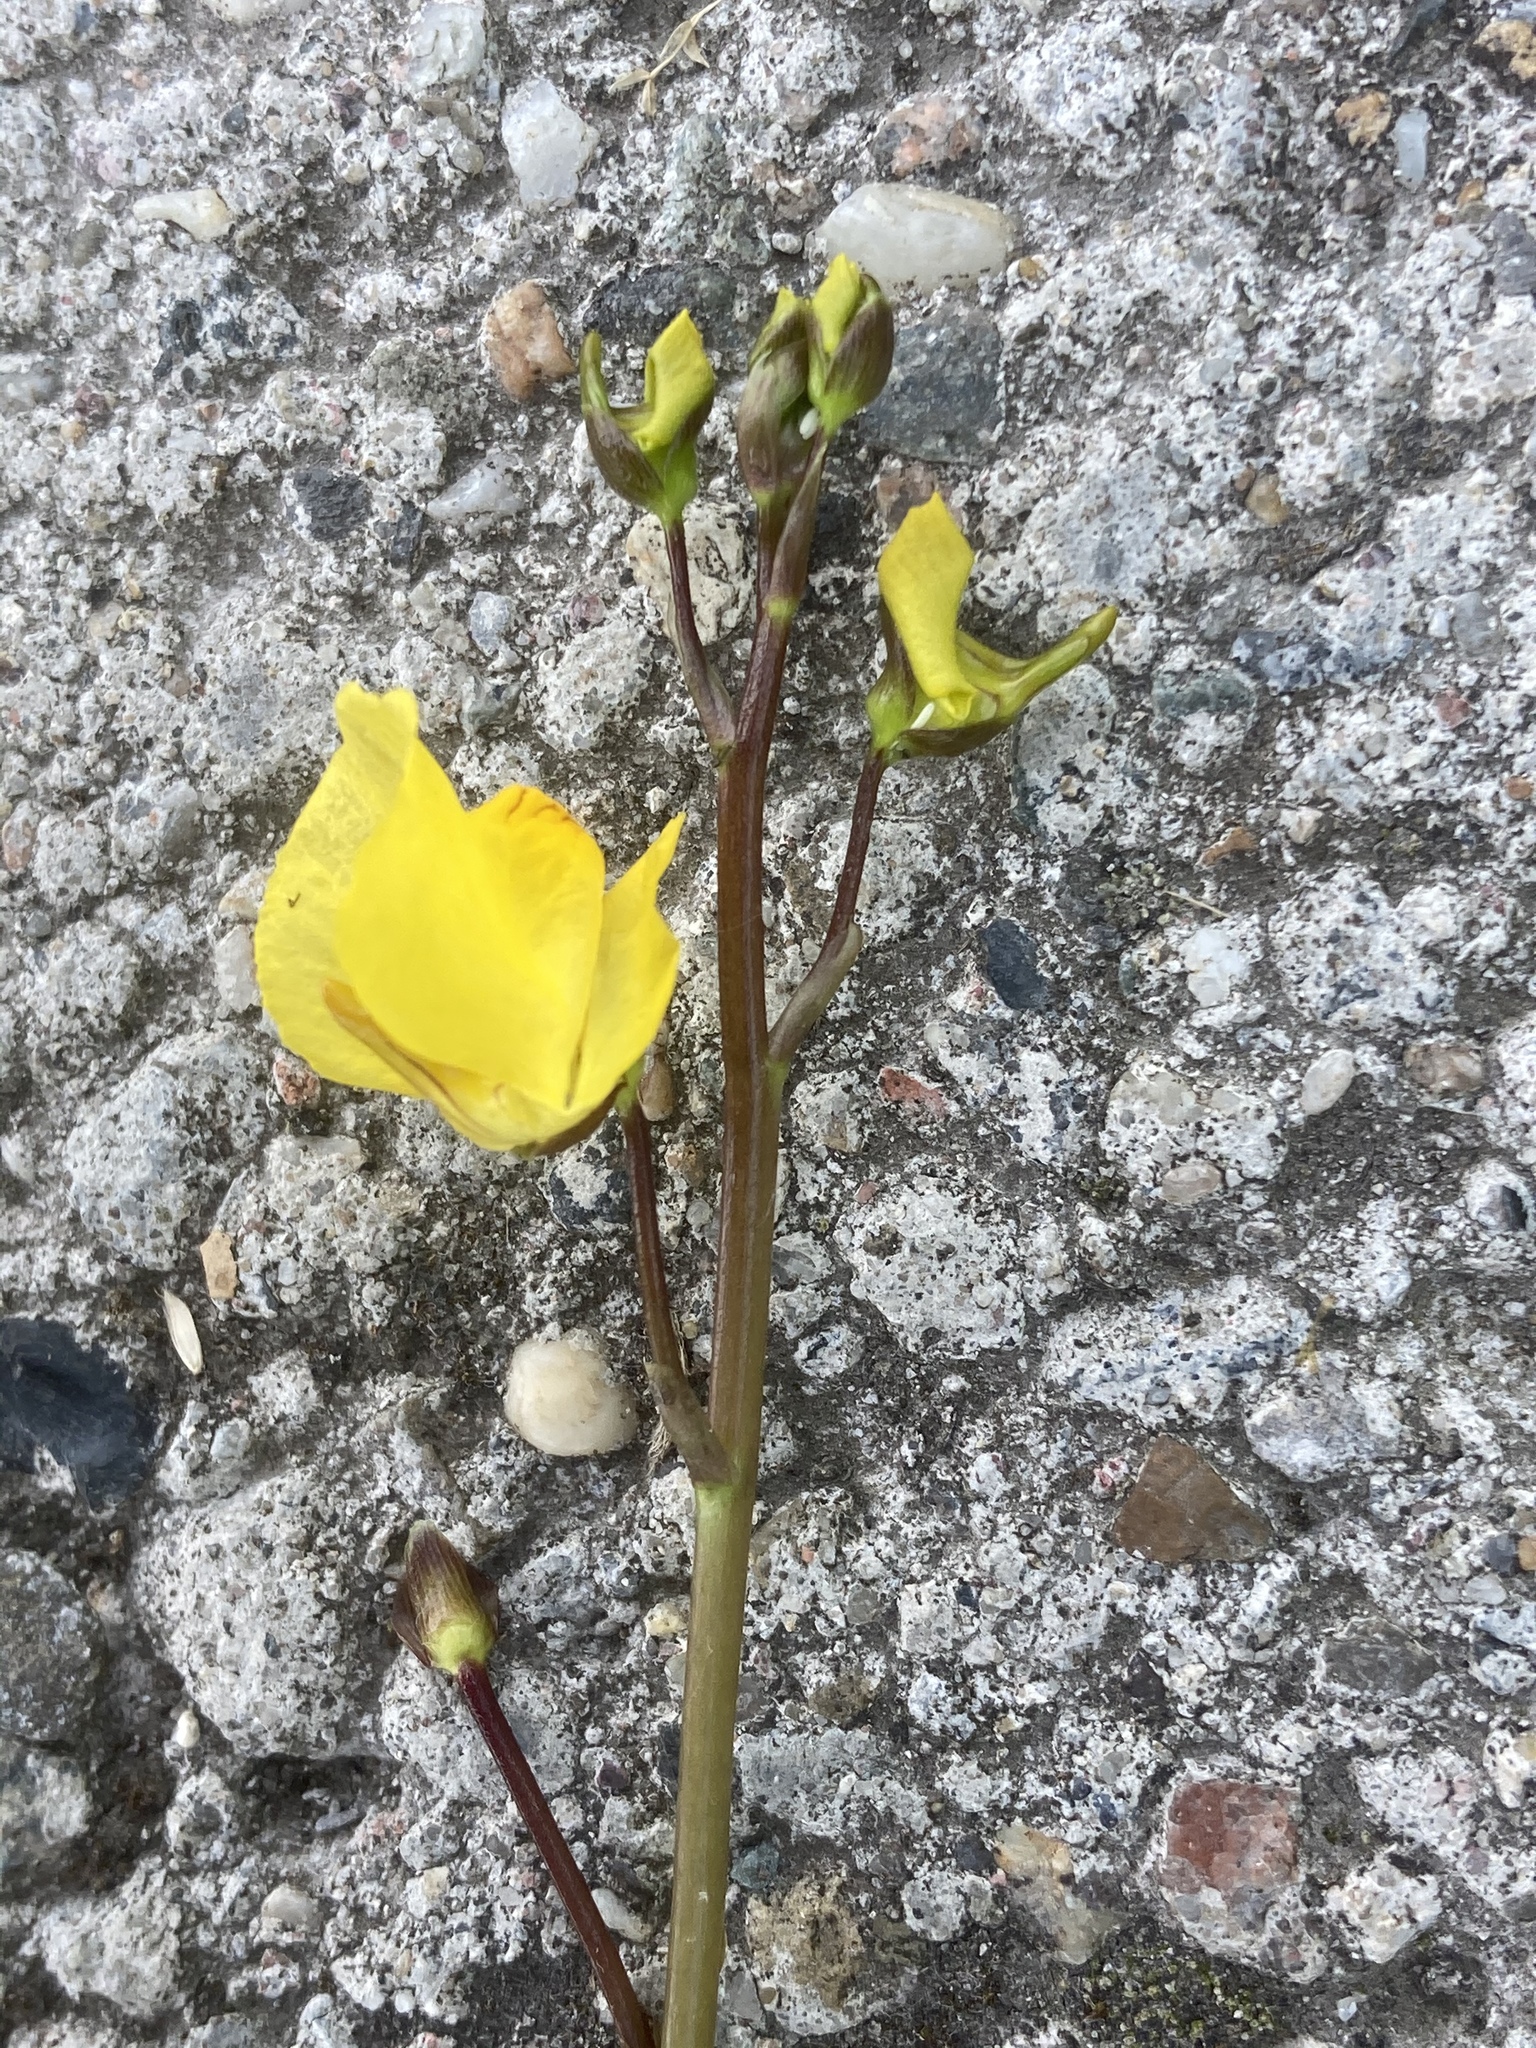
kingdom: Plantae
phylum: Tracheophyta
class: Magnoliopsida
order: Lamiales
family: Lentibulariaceae
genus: Utricularia
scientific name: Utricularia vulgaris
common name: Greater bladderwort
